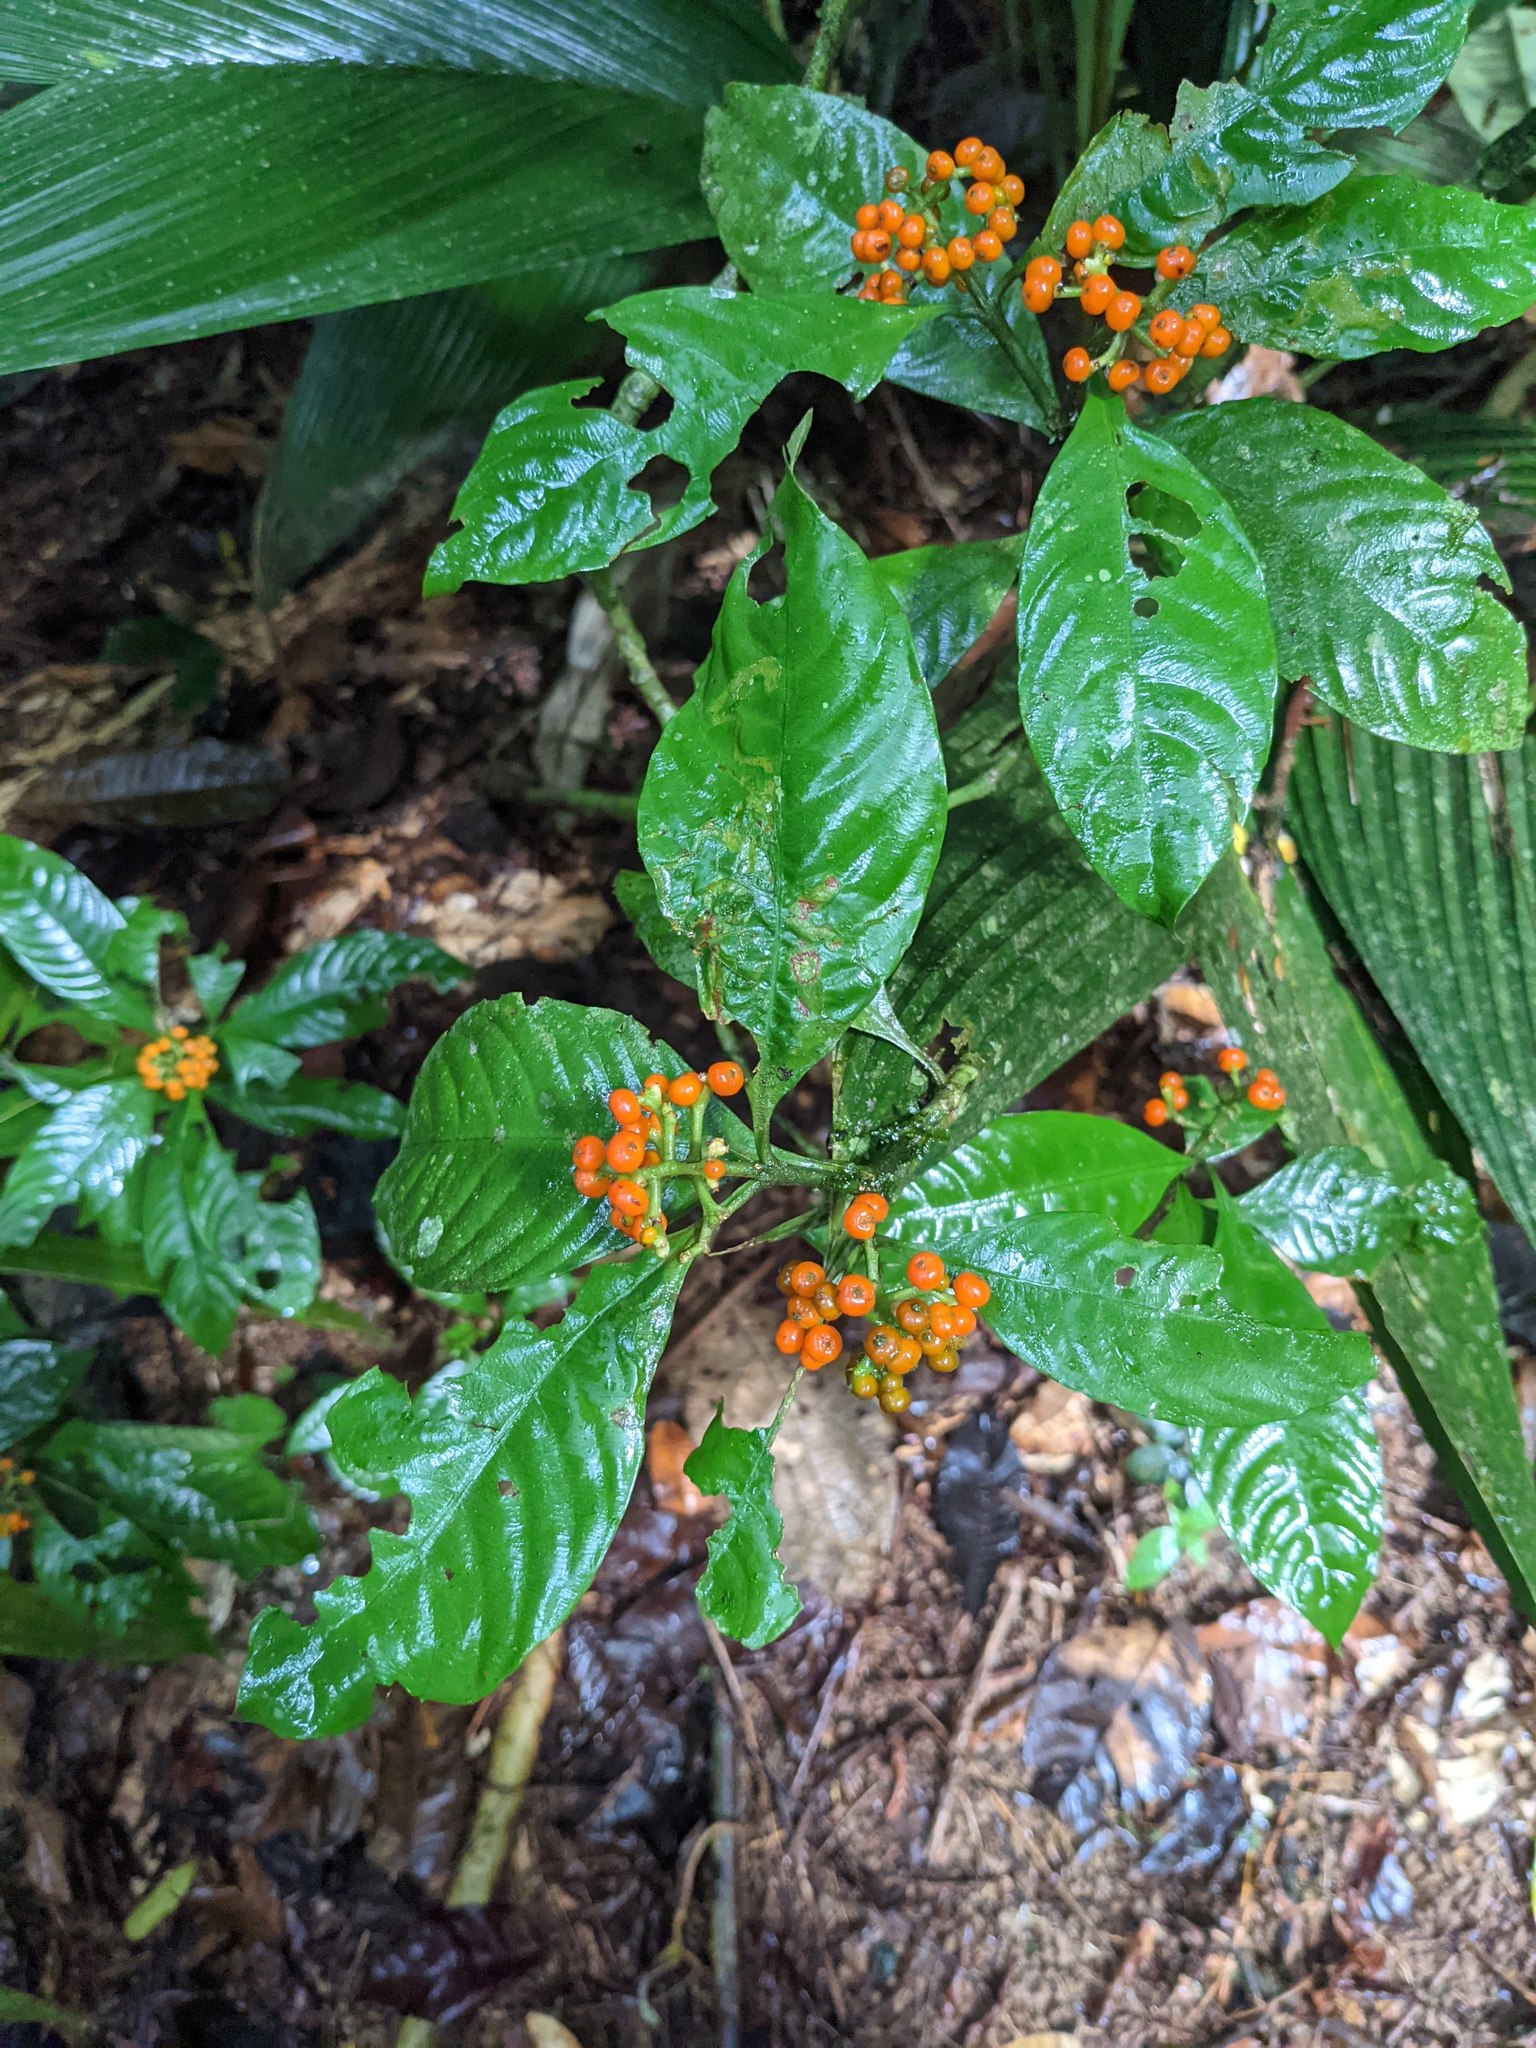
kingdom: Plantae
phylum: Tracheophyta
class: Magnoliopsida
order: Gentianales
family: Rubiaceae
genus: Palicourea
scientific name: Palicourea racemosa
